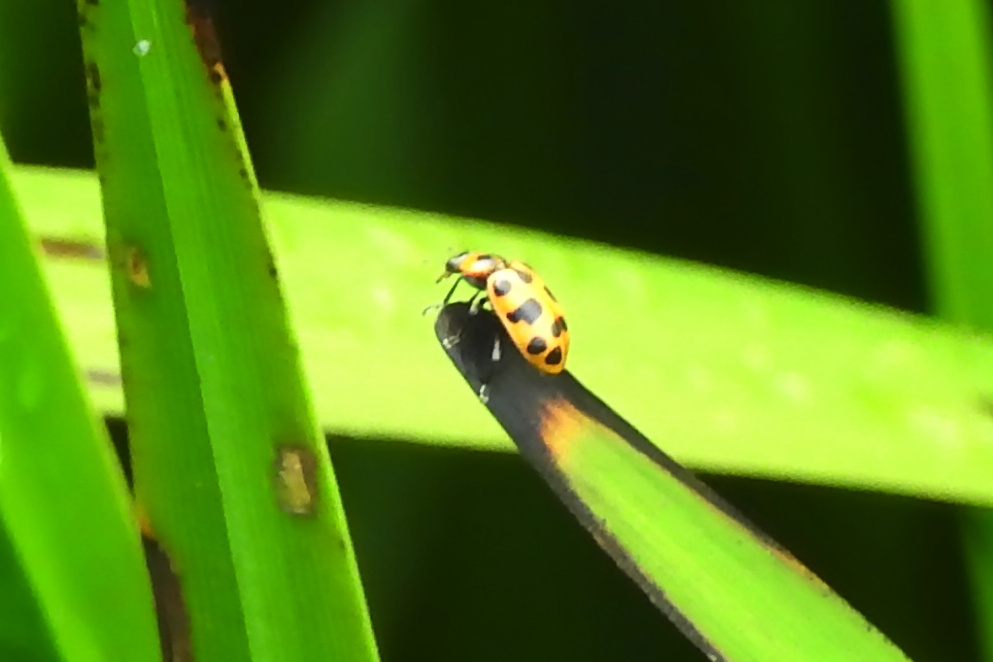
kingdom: Animalia
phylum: Arthropoda
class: Insecta
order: Coleoptera
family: Coccinellidae
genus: Coleomegilla
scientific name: Coleomegilla maculata
